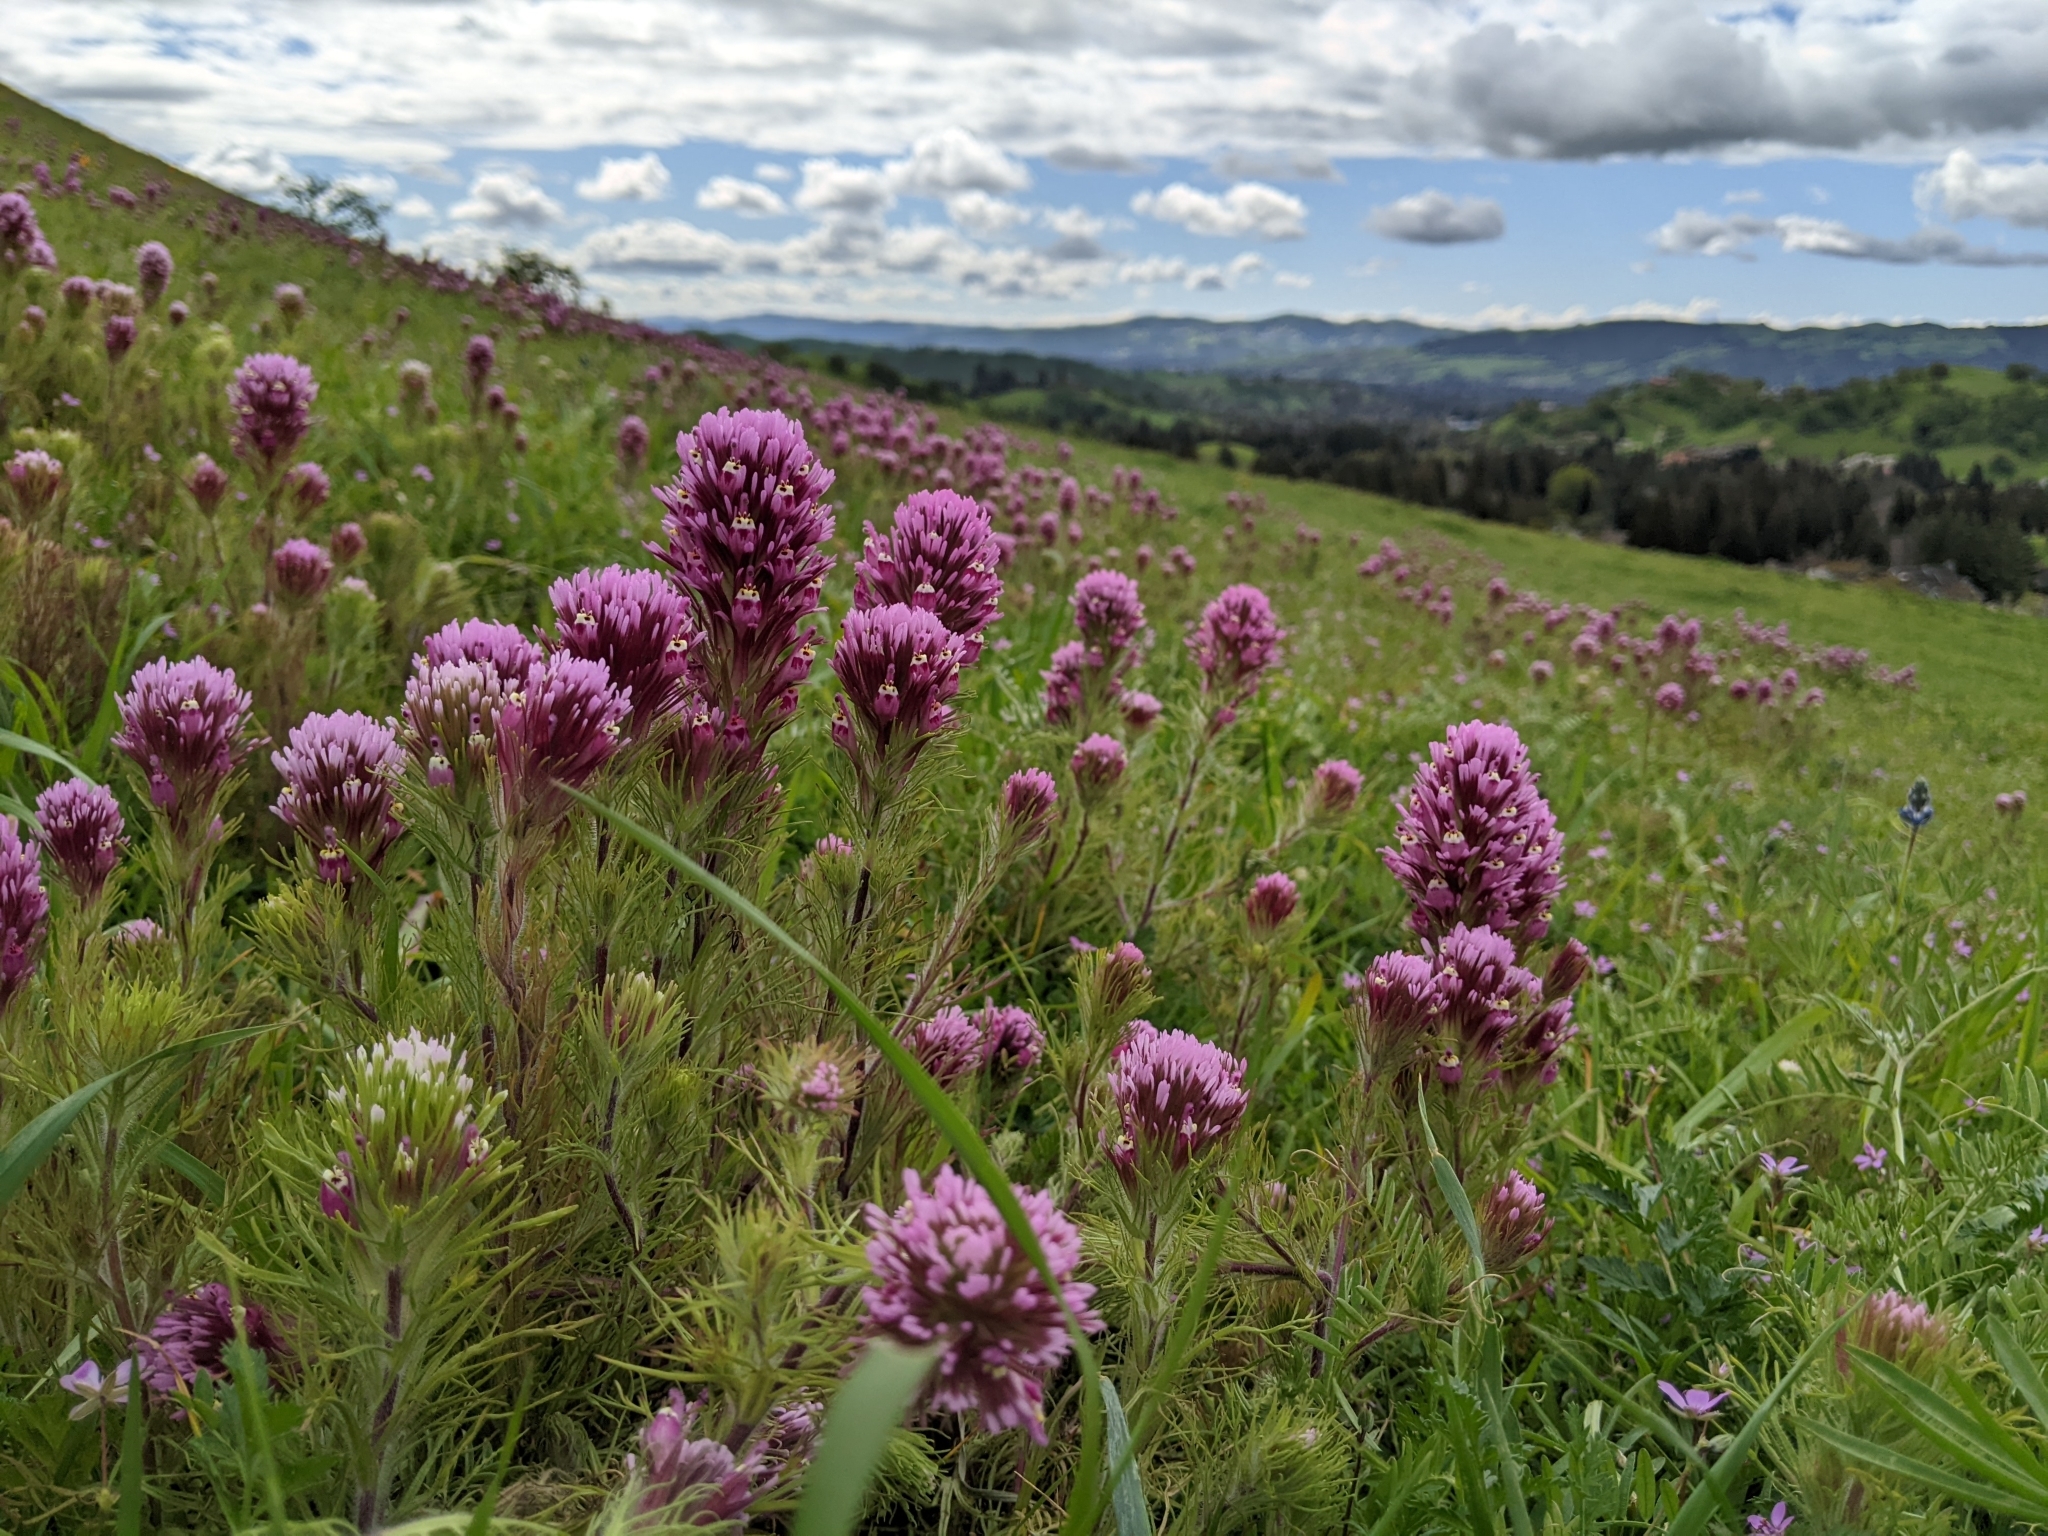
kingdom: Plantae
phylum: Tracheophyta
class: Magnoliopsida
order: Lamiales
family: Orobanchaceae
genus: Castilleja
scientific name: Castilleja exserta
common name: Purple owl-clover
